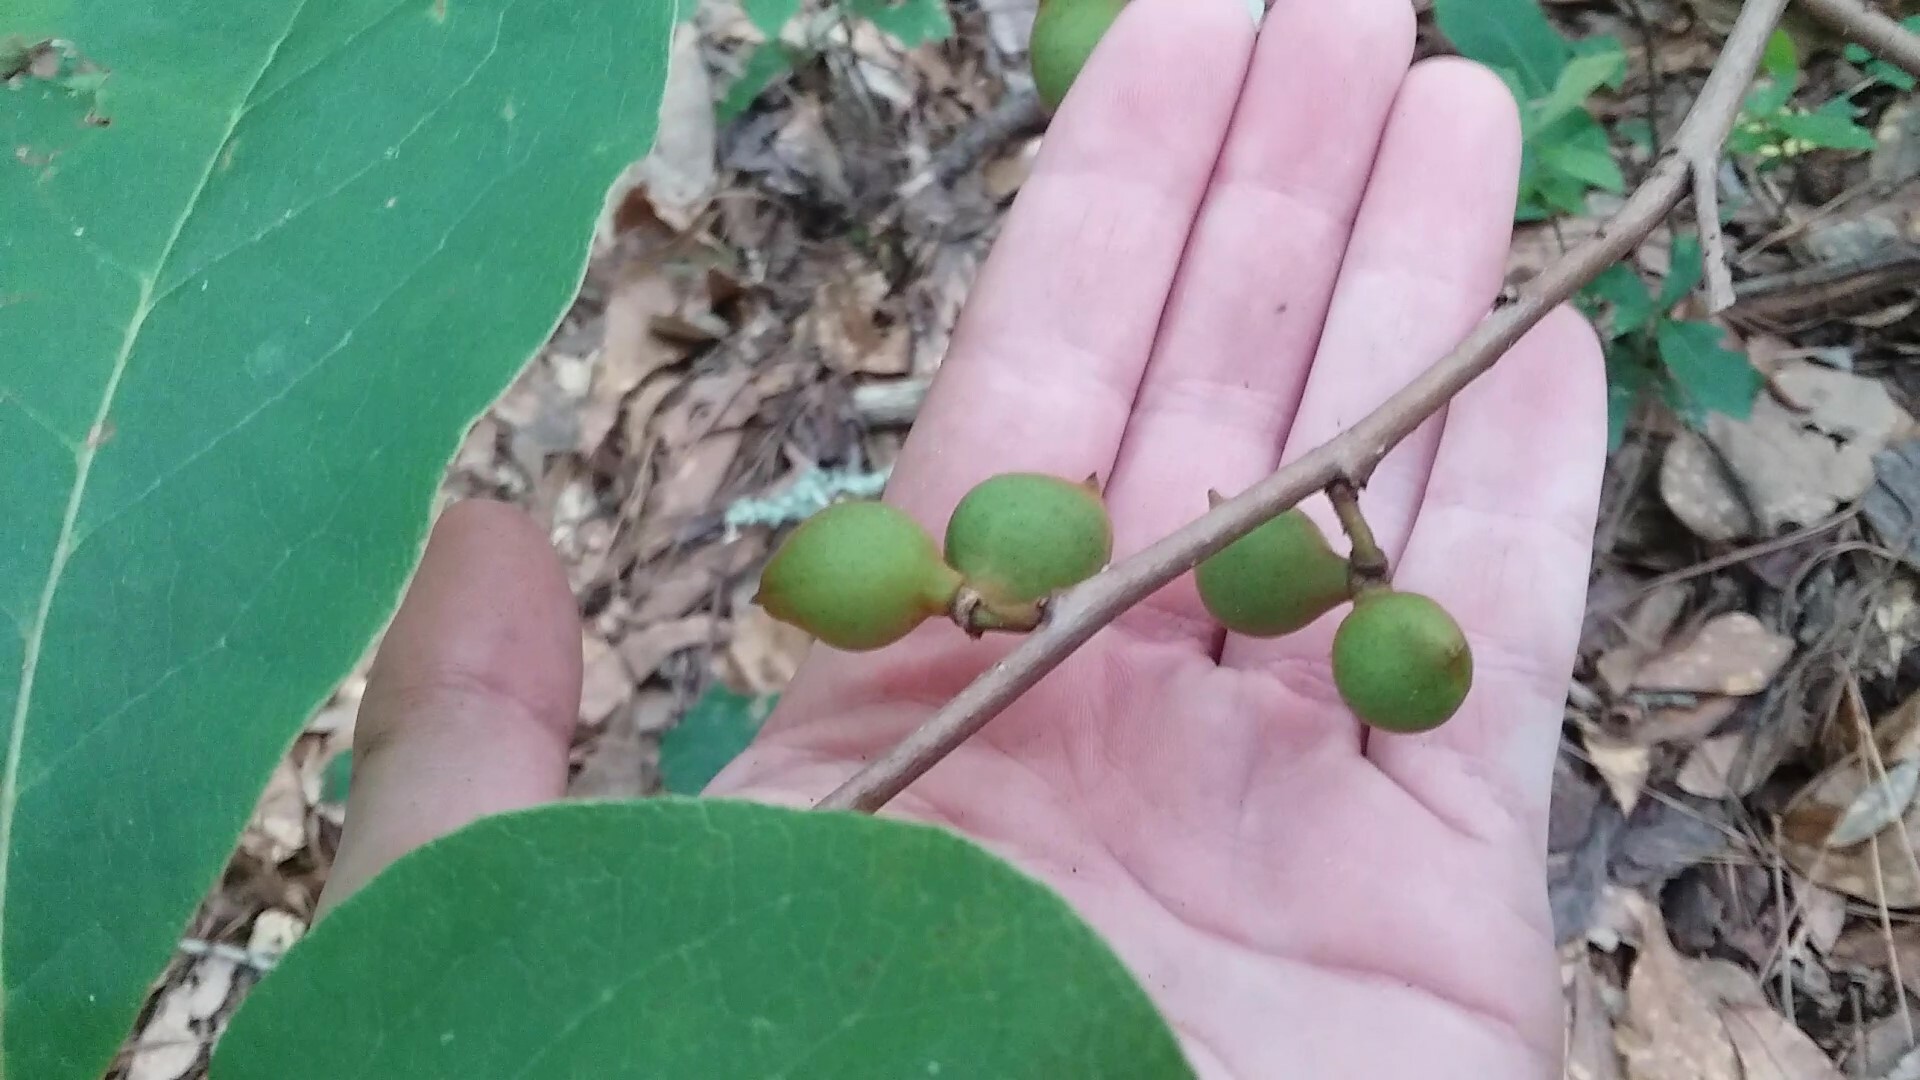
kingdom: Plantae
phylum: Tracheophyta
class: Magnoliopsida
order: Magnoliales
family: Annonaceae
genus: Asimina
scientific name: Asimina parviflora
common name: Dwarf pawpaw
